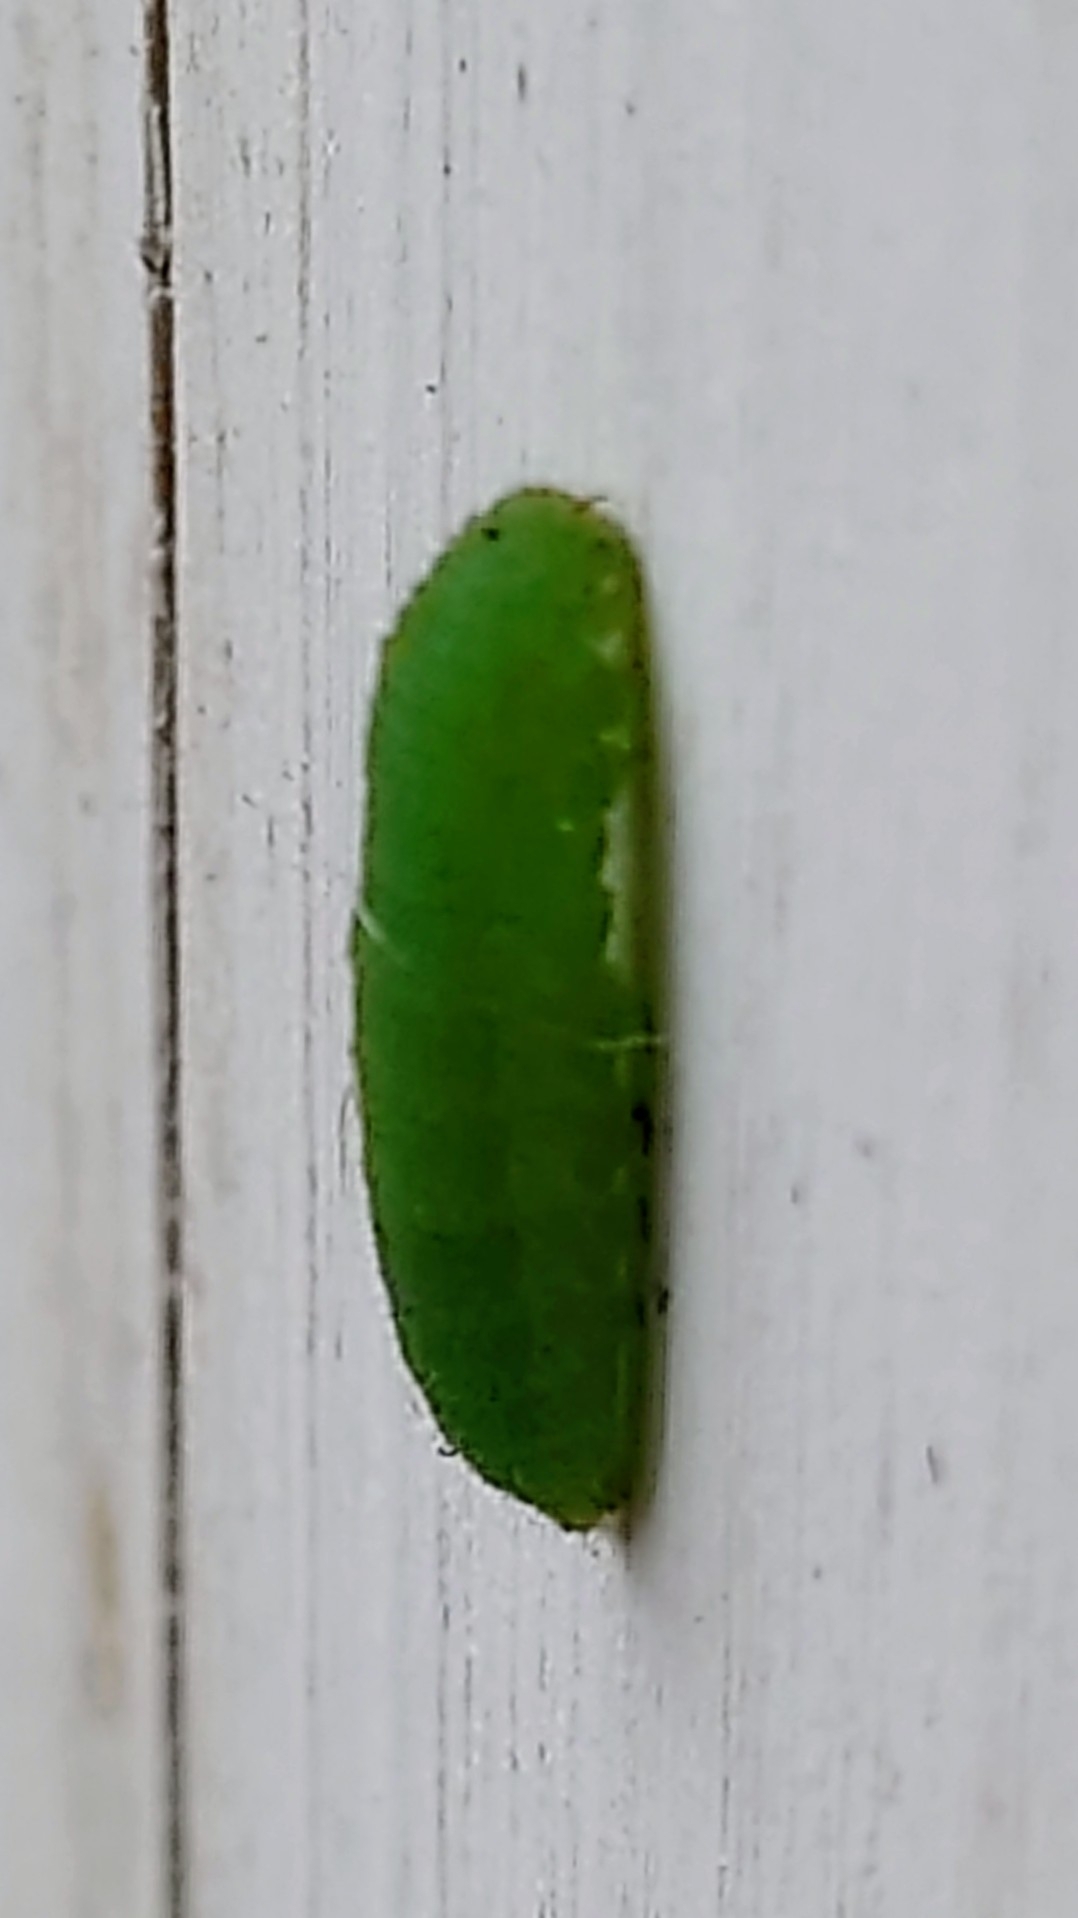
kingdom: Animalia
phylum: Arthropoda
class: Insecta
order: Lepidoptera
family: Pieridae
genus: Pieris
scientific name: Pieris rapae
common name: Small white
